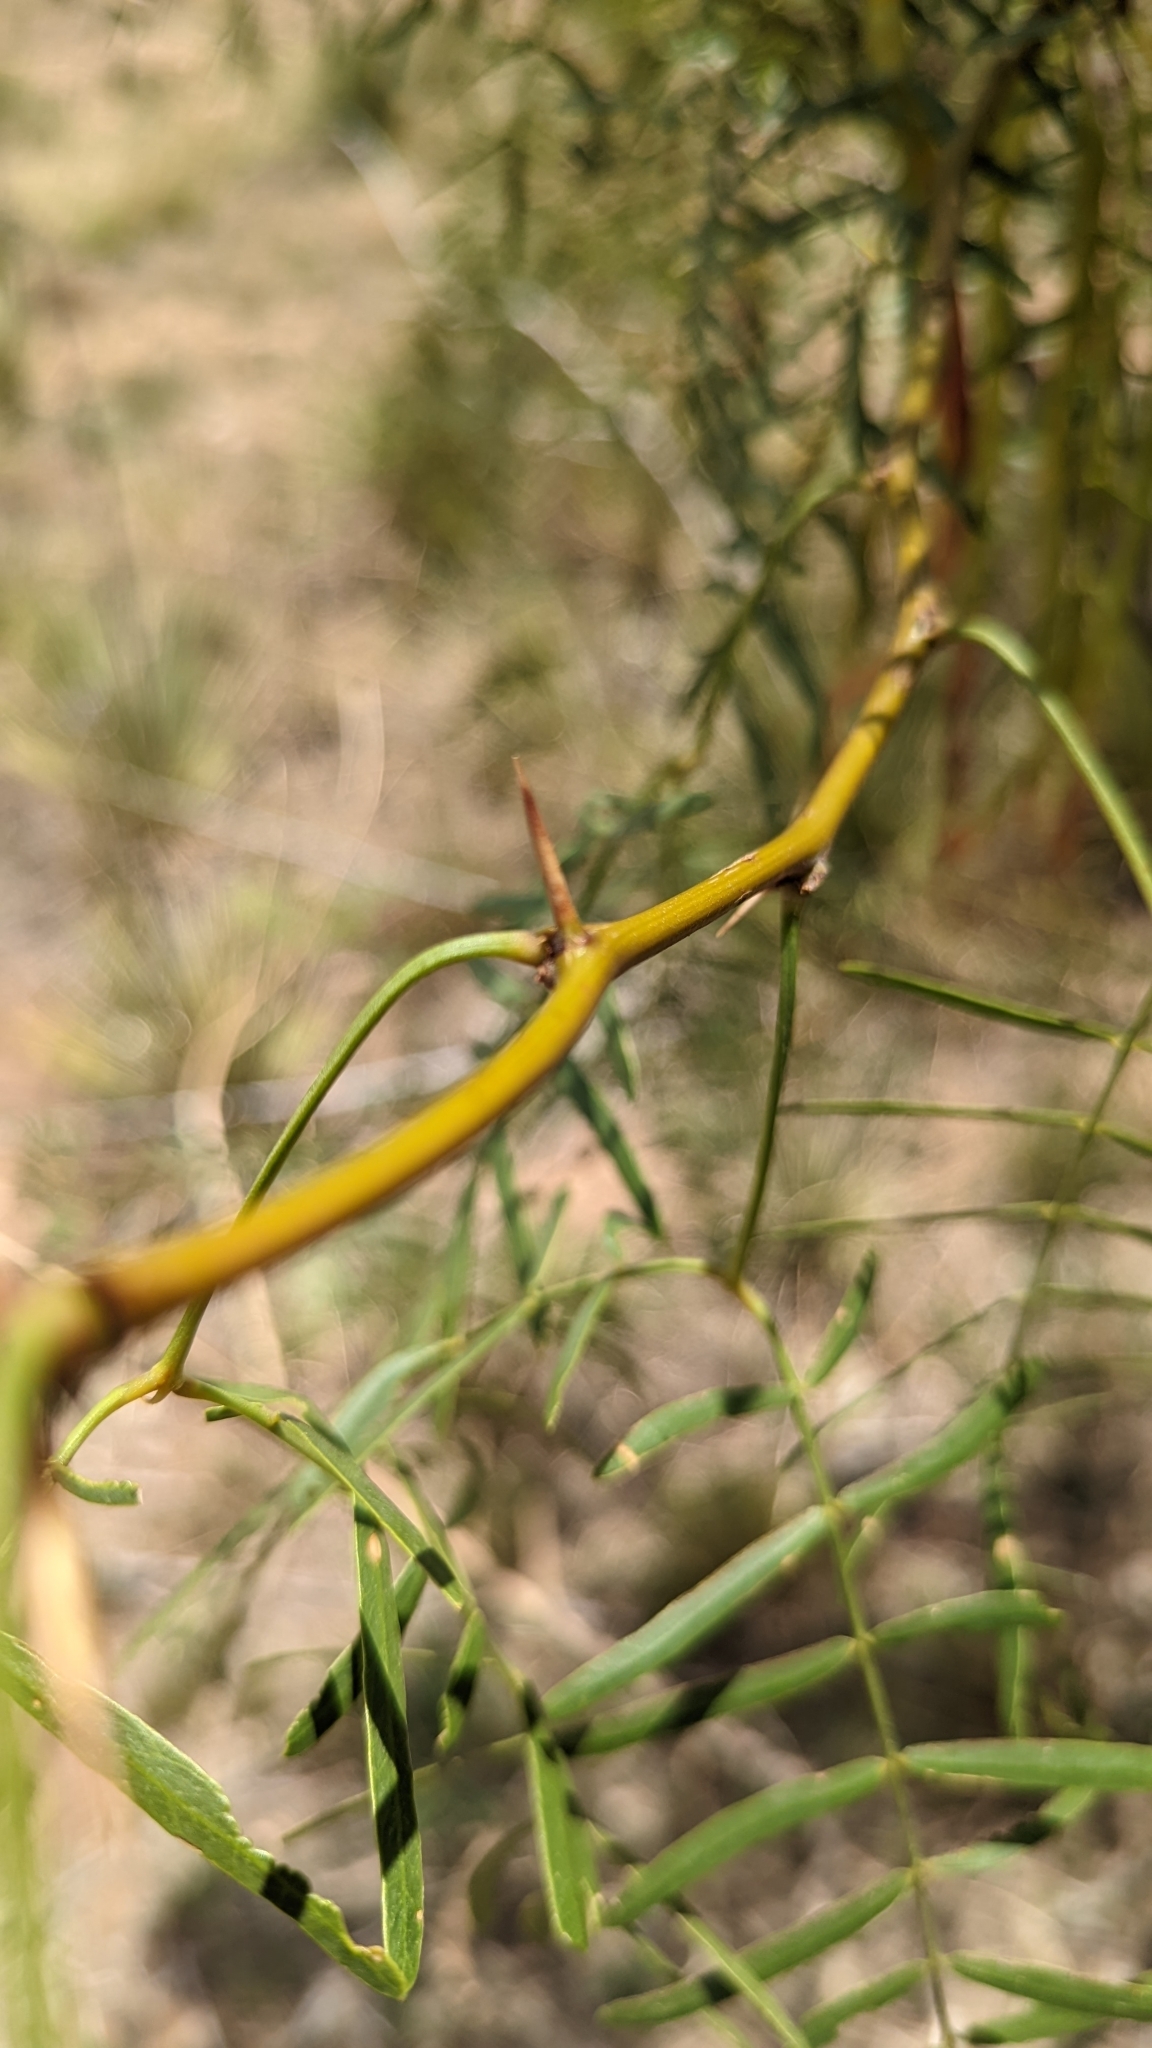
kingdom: Plantae
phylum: Tracheophyta
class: Magnoliopsida
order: Fabales
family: Fabaceae
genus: Prosopis
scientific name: Prosopis glandulosa
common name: Honey mesquite
